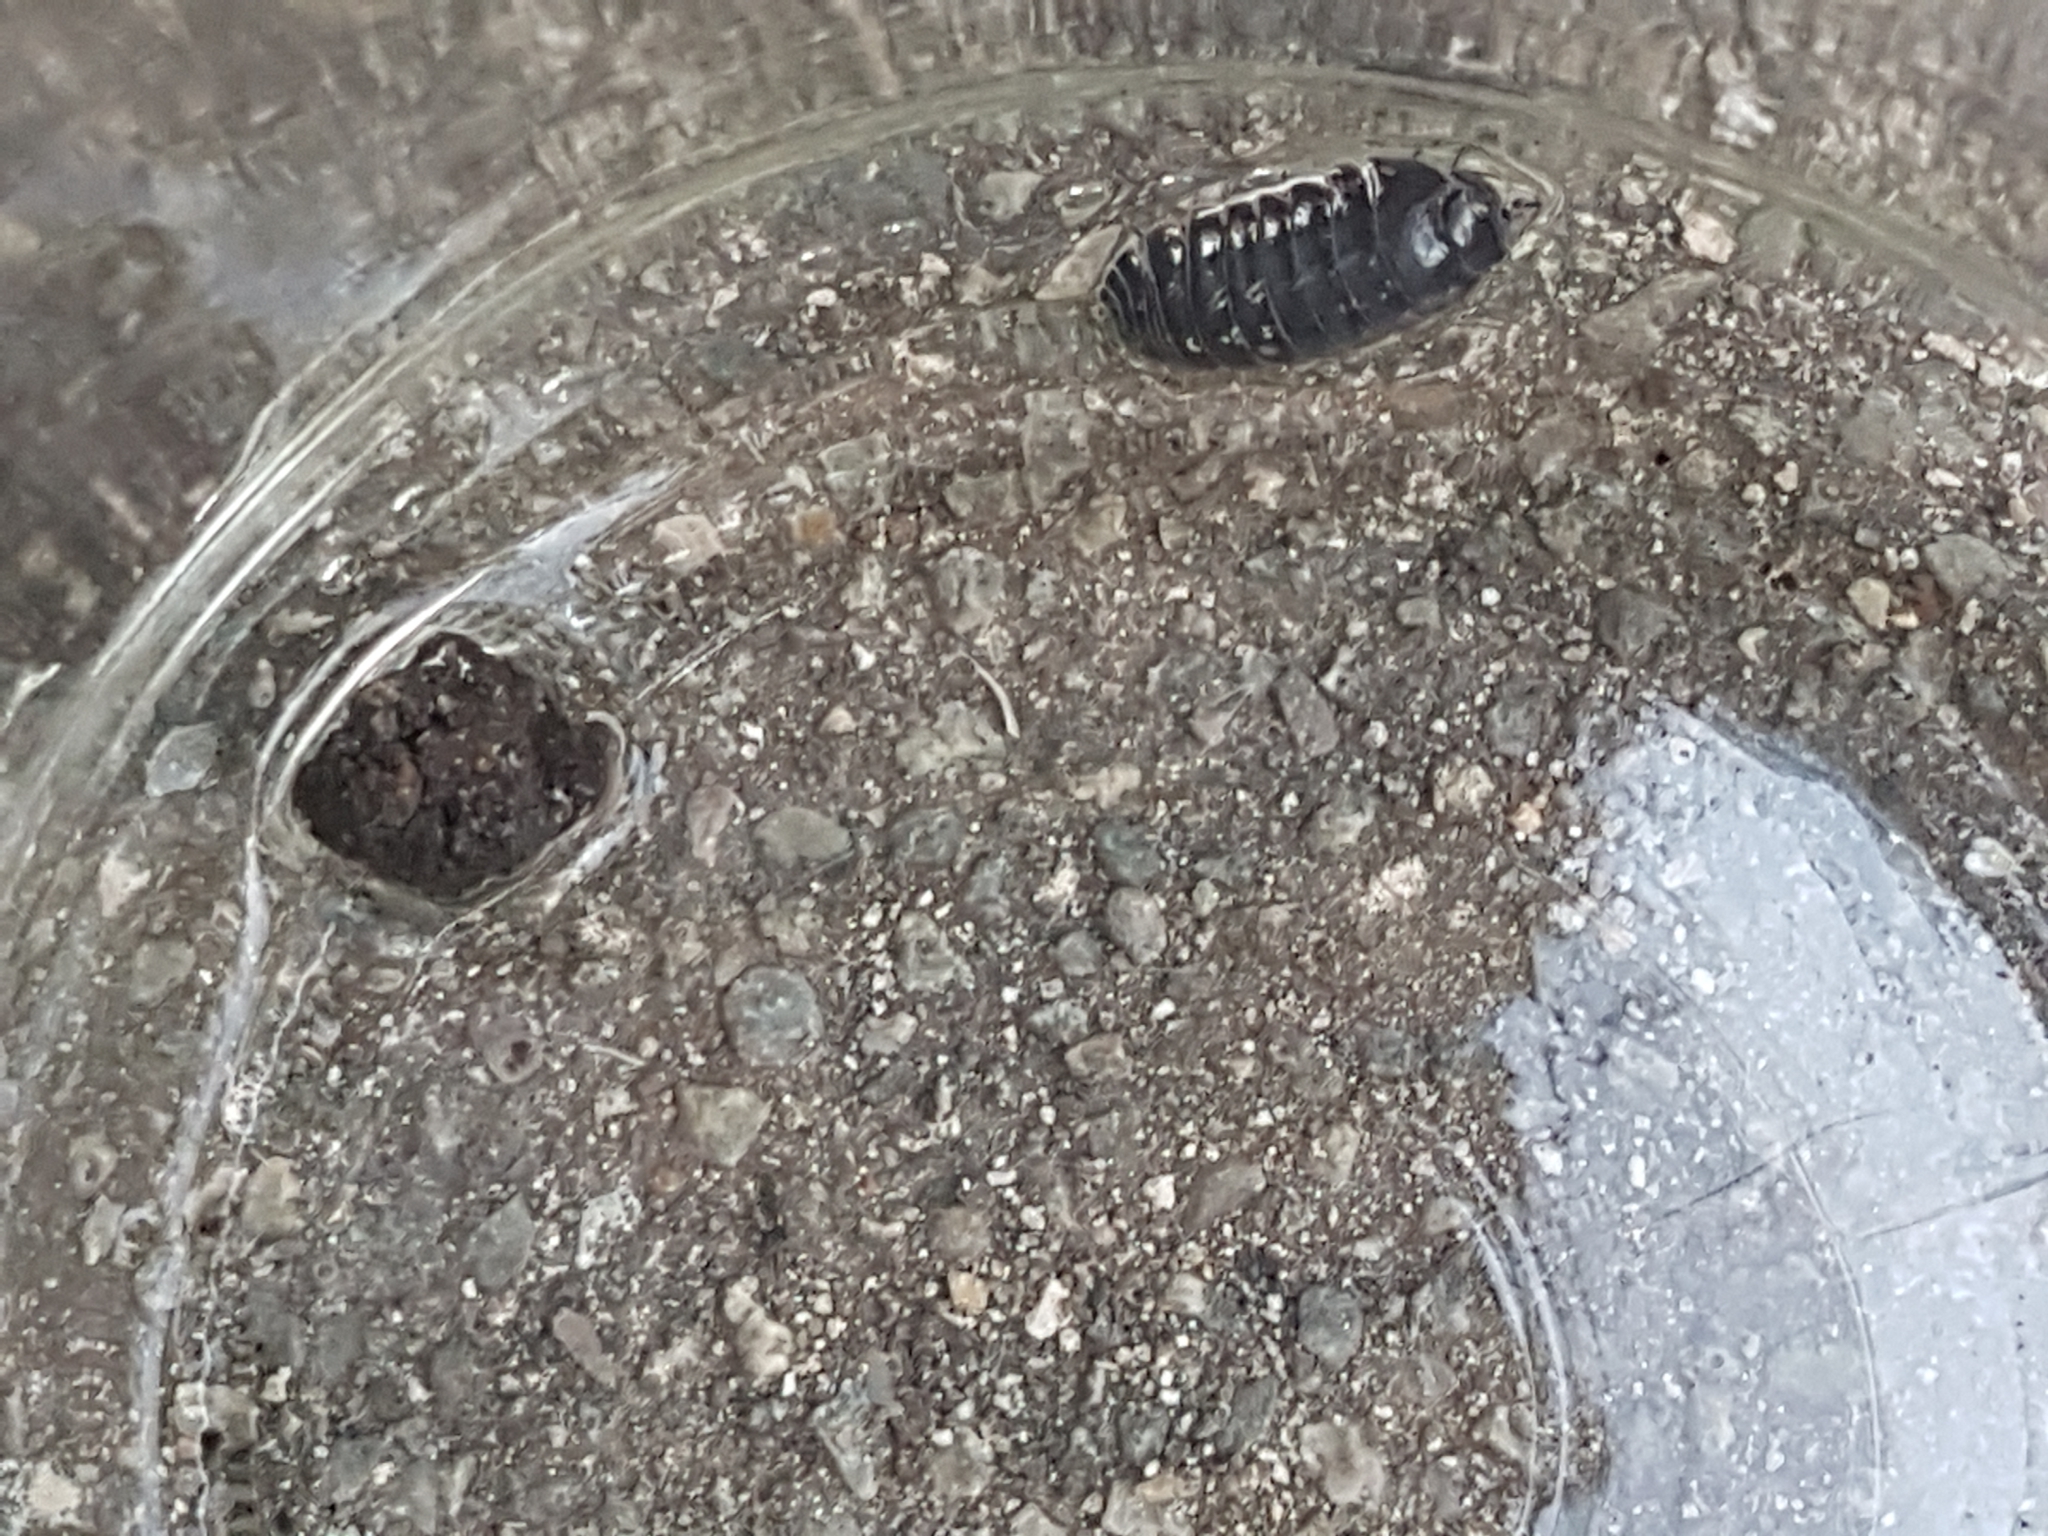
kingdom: Animalia
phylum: Arthropoda
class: Malacostraca
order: Isopoda
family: Armadillidiidae
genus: Armadillidium
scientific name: Armadillidium vulgare
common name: Common pill woodlouse
